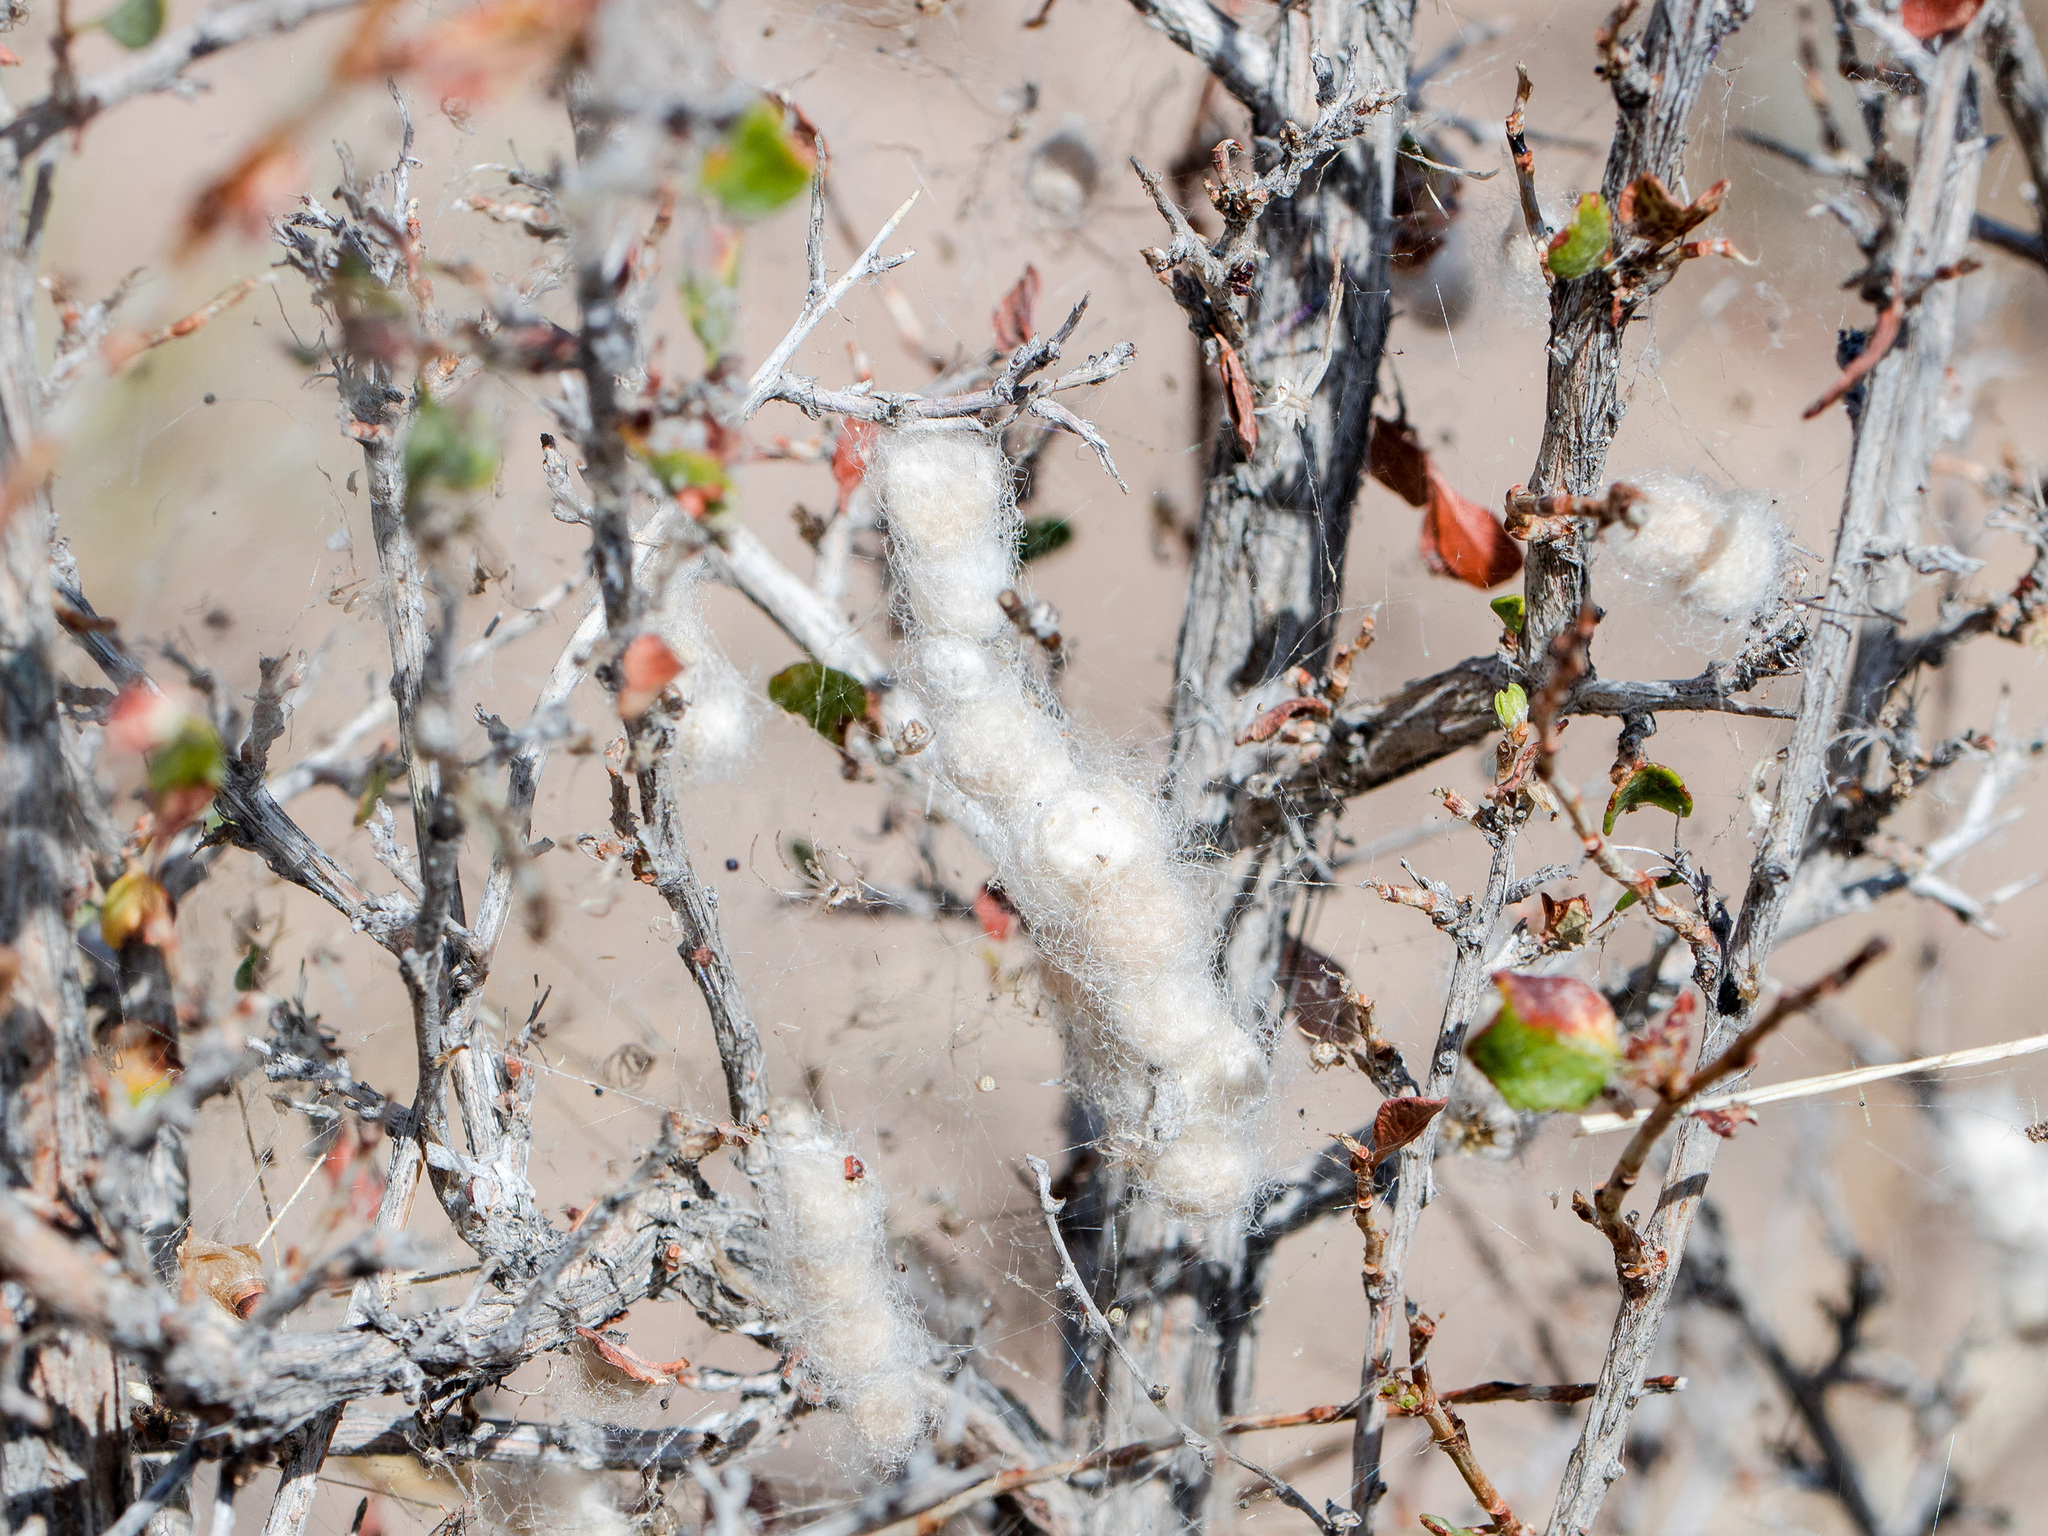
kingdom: Animalia
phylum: Arthropoda
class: Arachnida
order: Araneae
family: Araneidae
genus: Araneus
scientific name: Araneus pallasi
